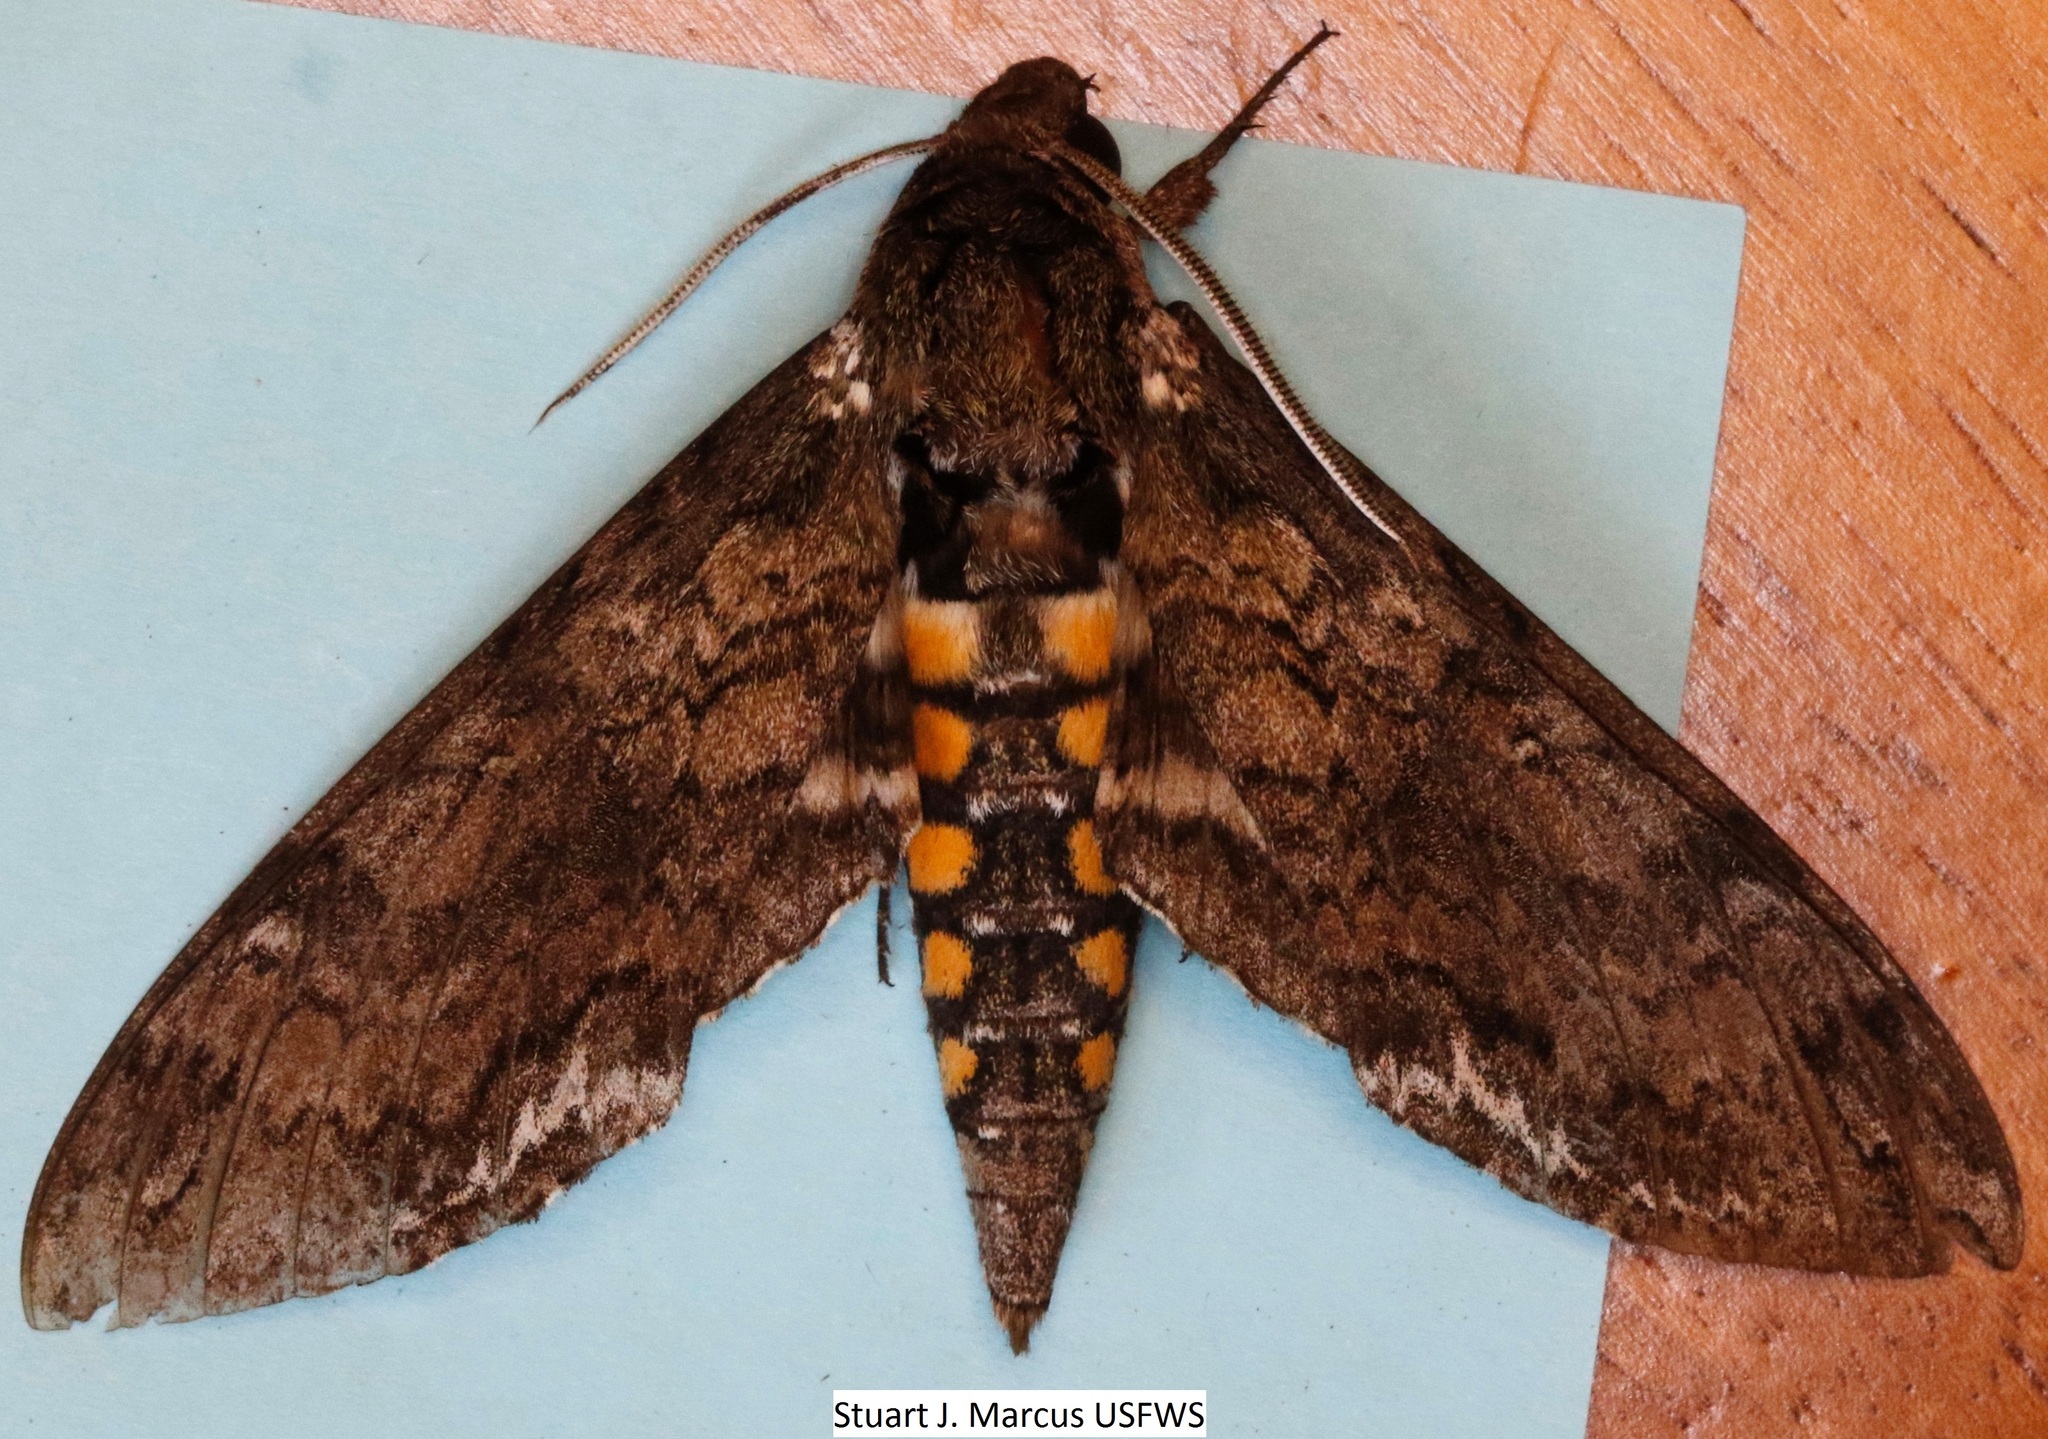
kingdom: Animalia
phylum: Arthropoda
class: Insecta
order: Lepidoptera
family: Sphingidae
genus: Manduca
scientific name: Manduca sexta
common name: Carolina sphinx
